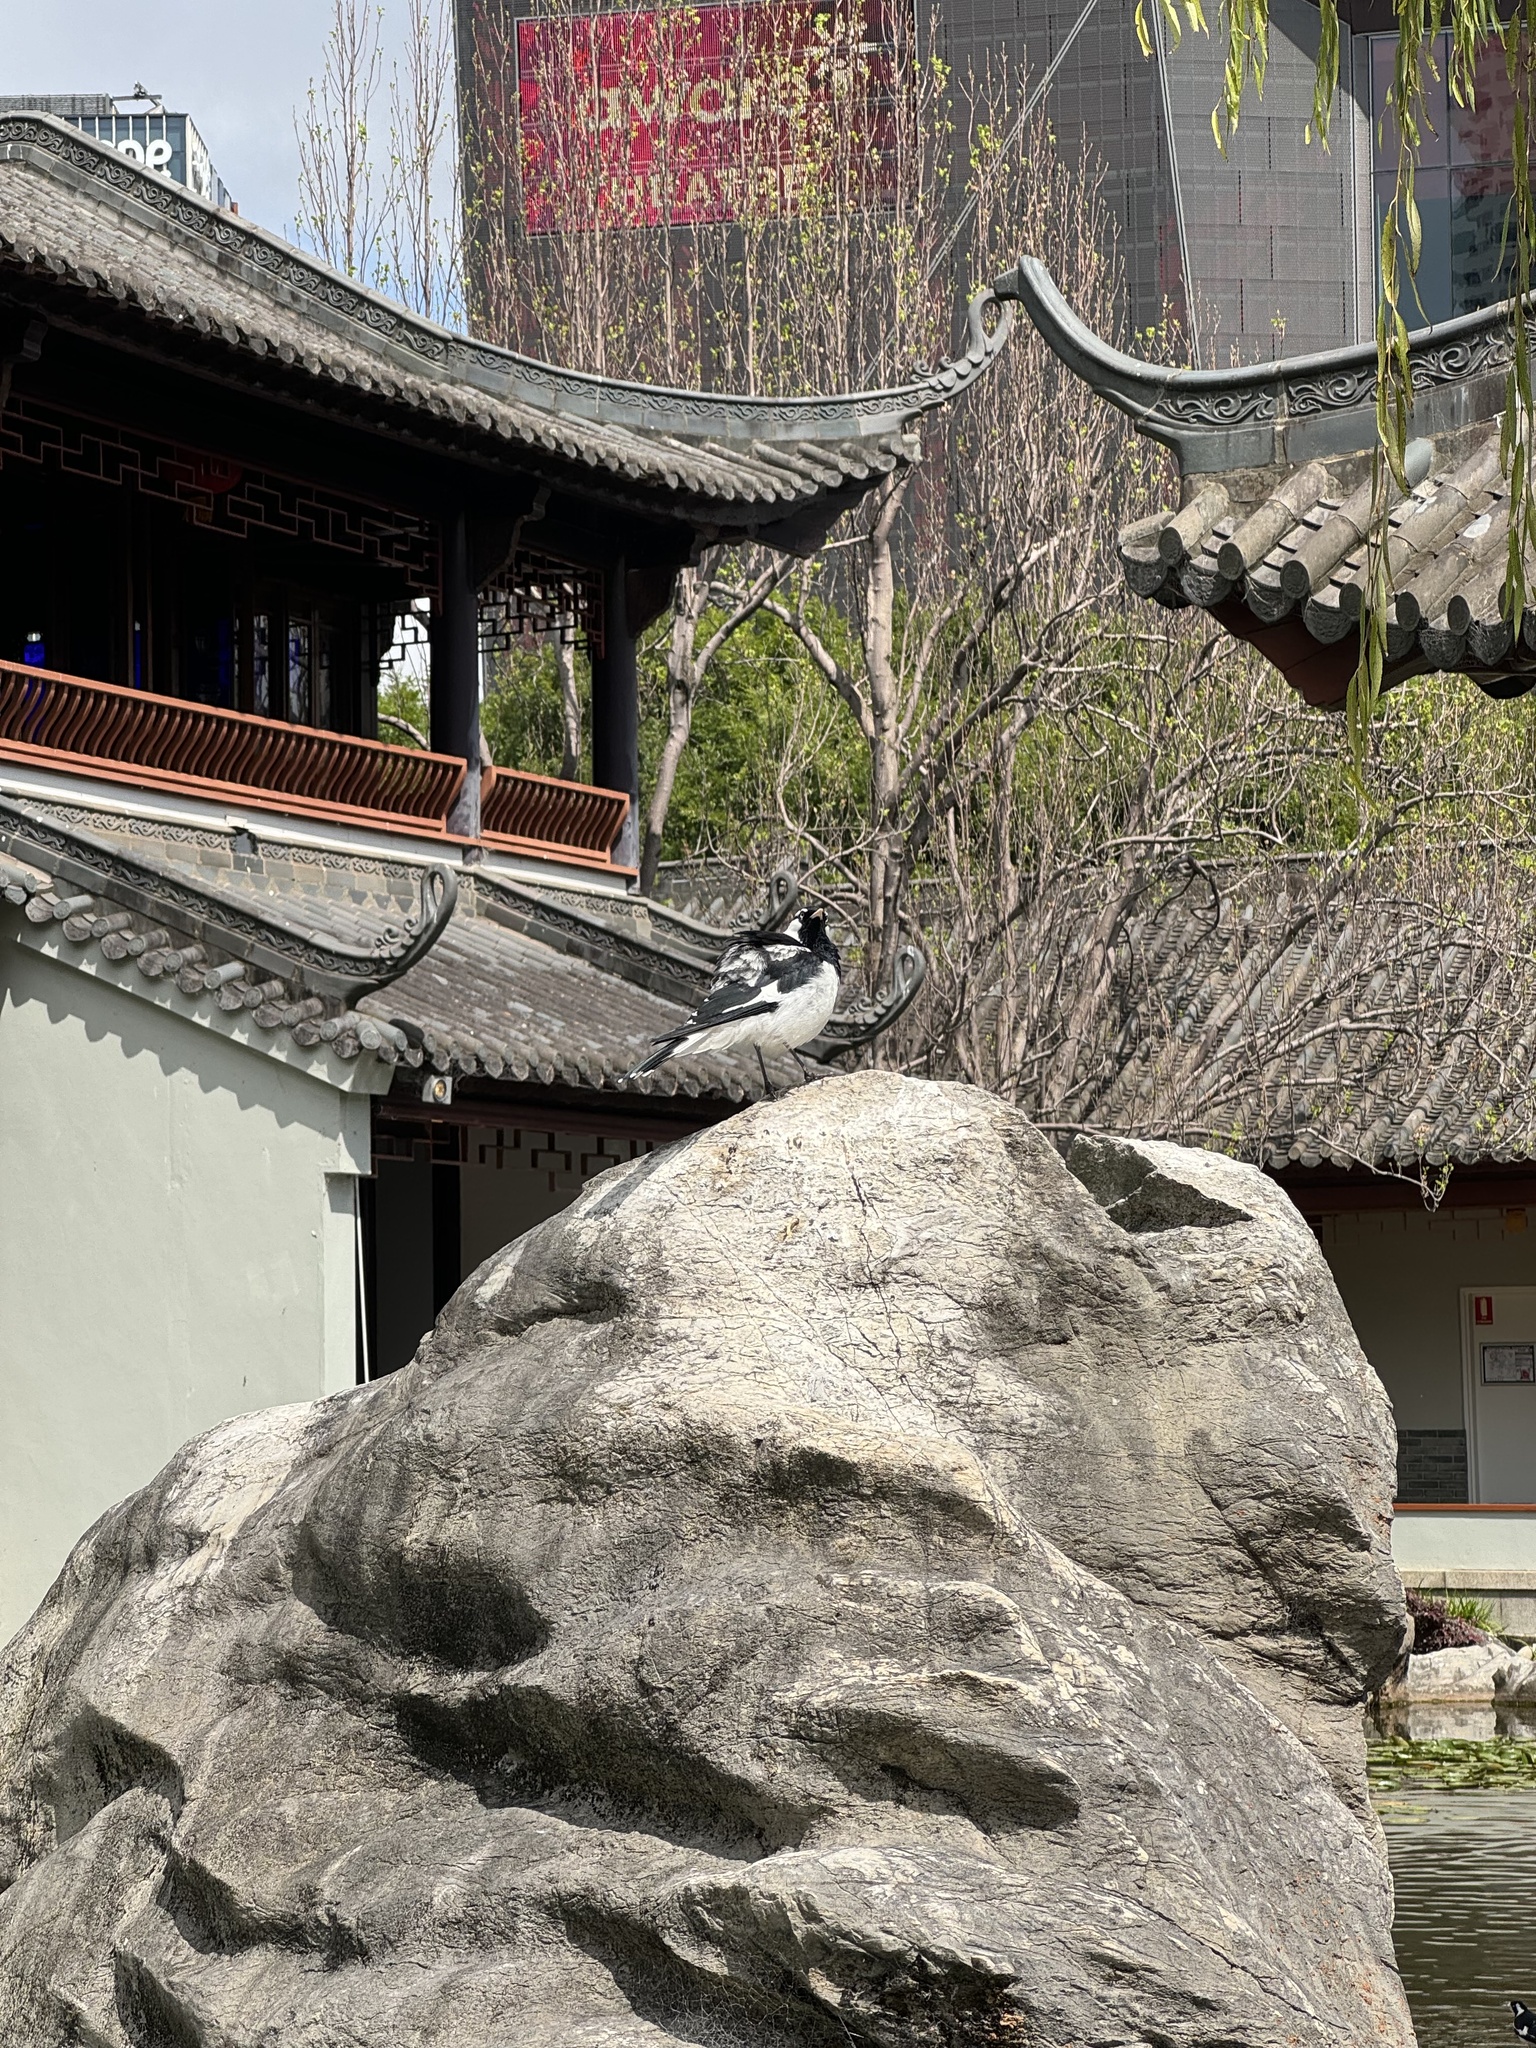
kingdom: Animalia
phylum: Chordata
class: Aves
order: Passeriformes
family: Monarchidae
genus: Grallina
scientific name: Grallina cyanoleuca
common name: Magpie-lark
